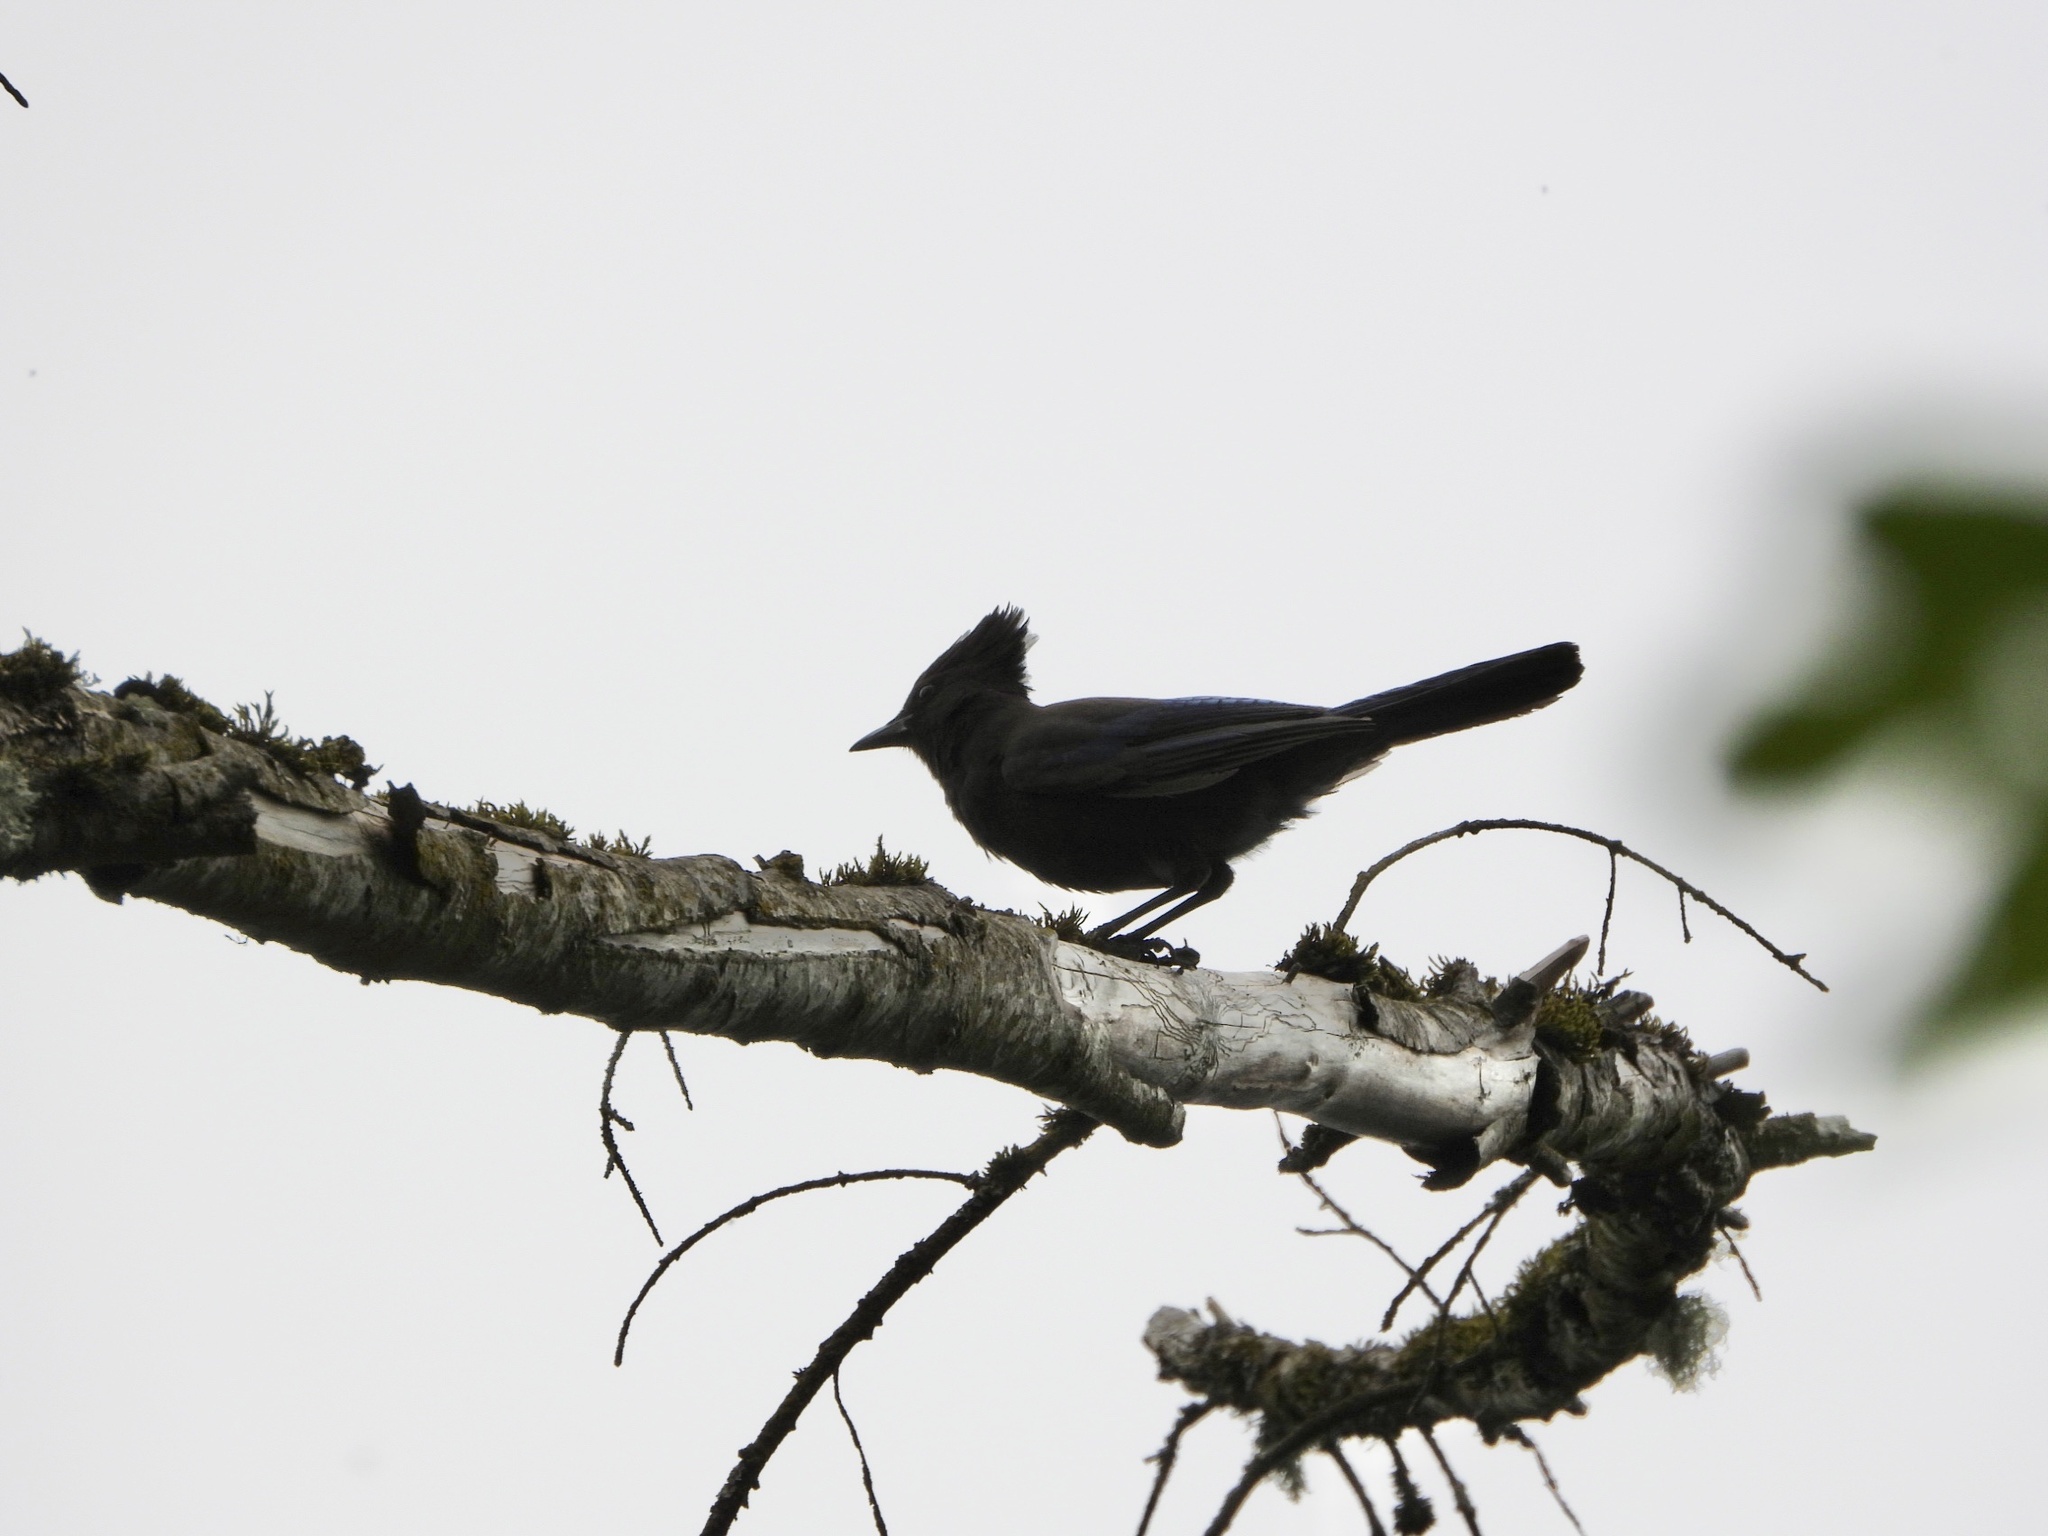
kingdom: Animalia
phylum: Chordata
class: Aves
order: Passeriformes
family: Corvidae
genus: Cyanocitta
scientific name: Cyanocitta stelleri
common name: Steller's jay
